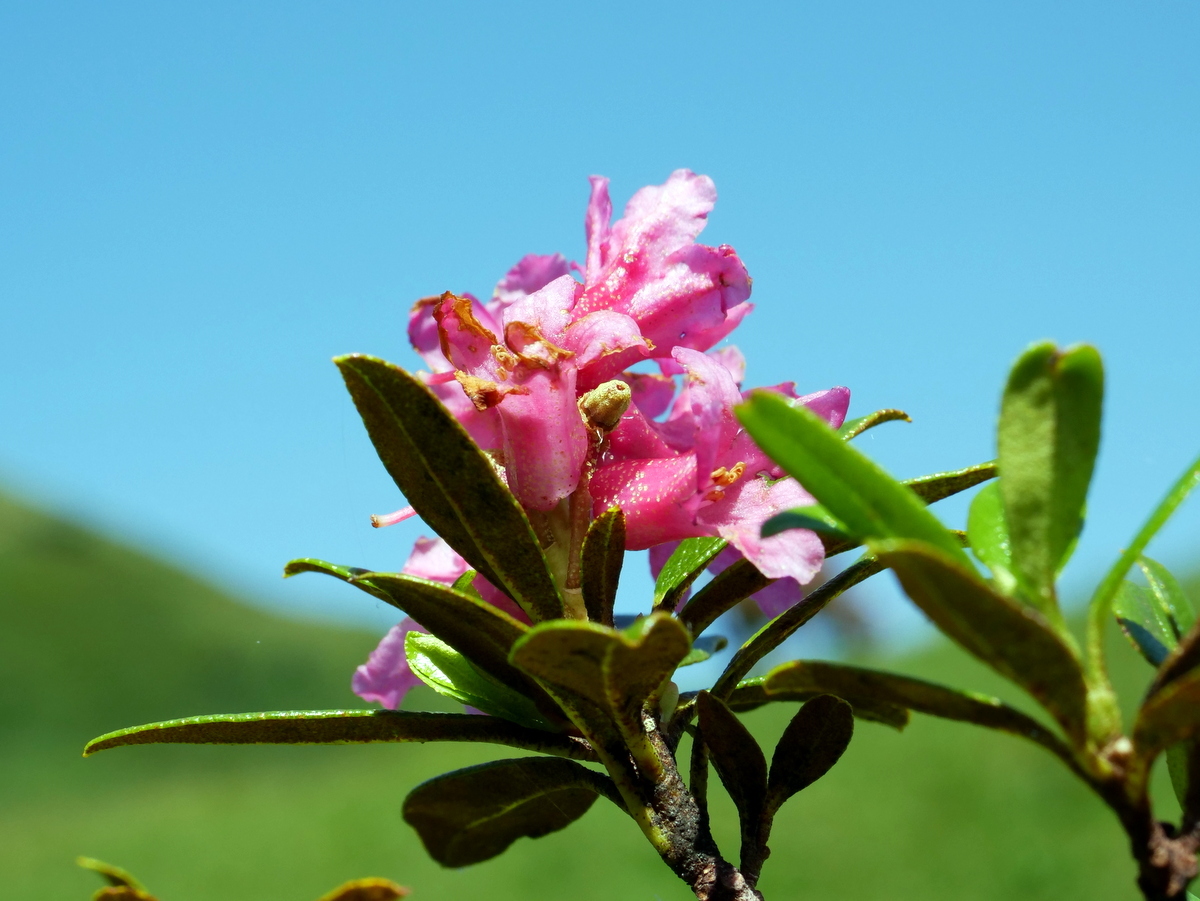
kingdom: Plantae
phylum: Tracheophyta
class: Magnoliopsida
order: Ericales
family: Ericaceae
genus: Rhododendron
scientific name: Rhododendron ferrugineum
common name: Alpenrose
